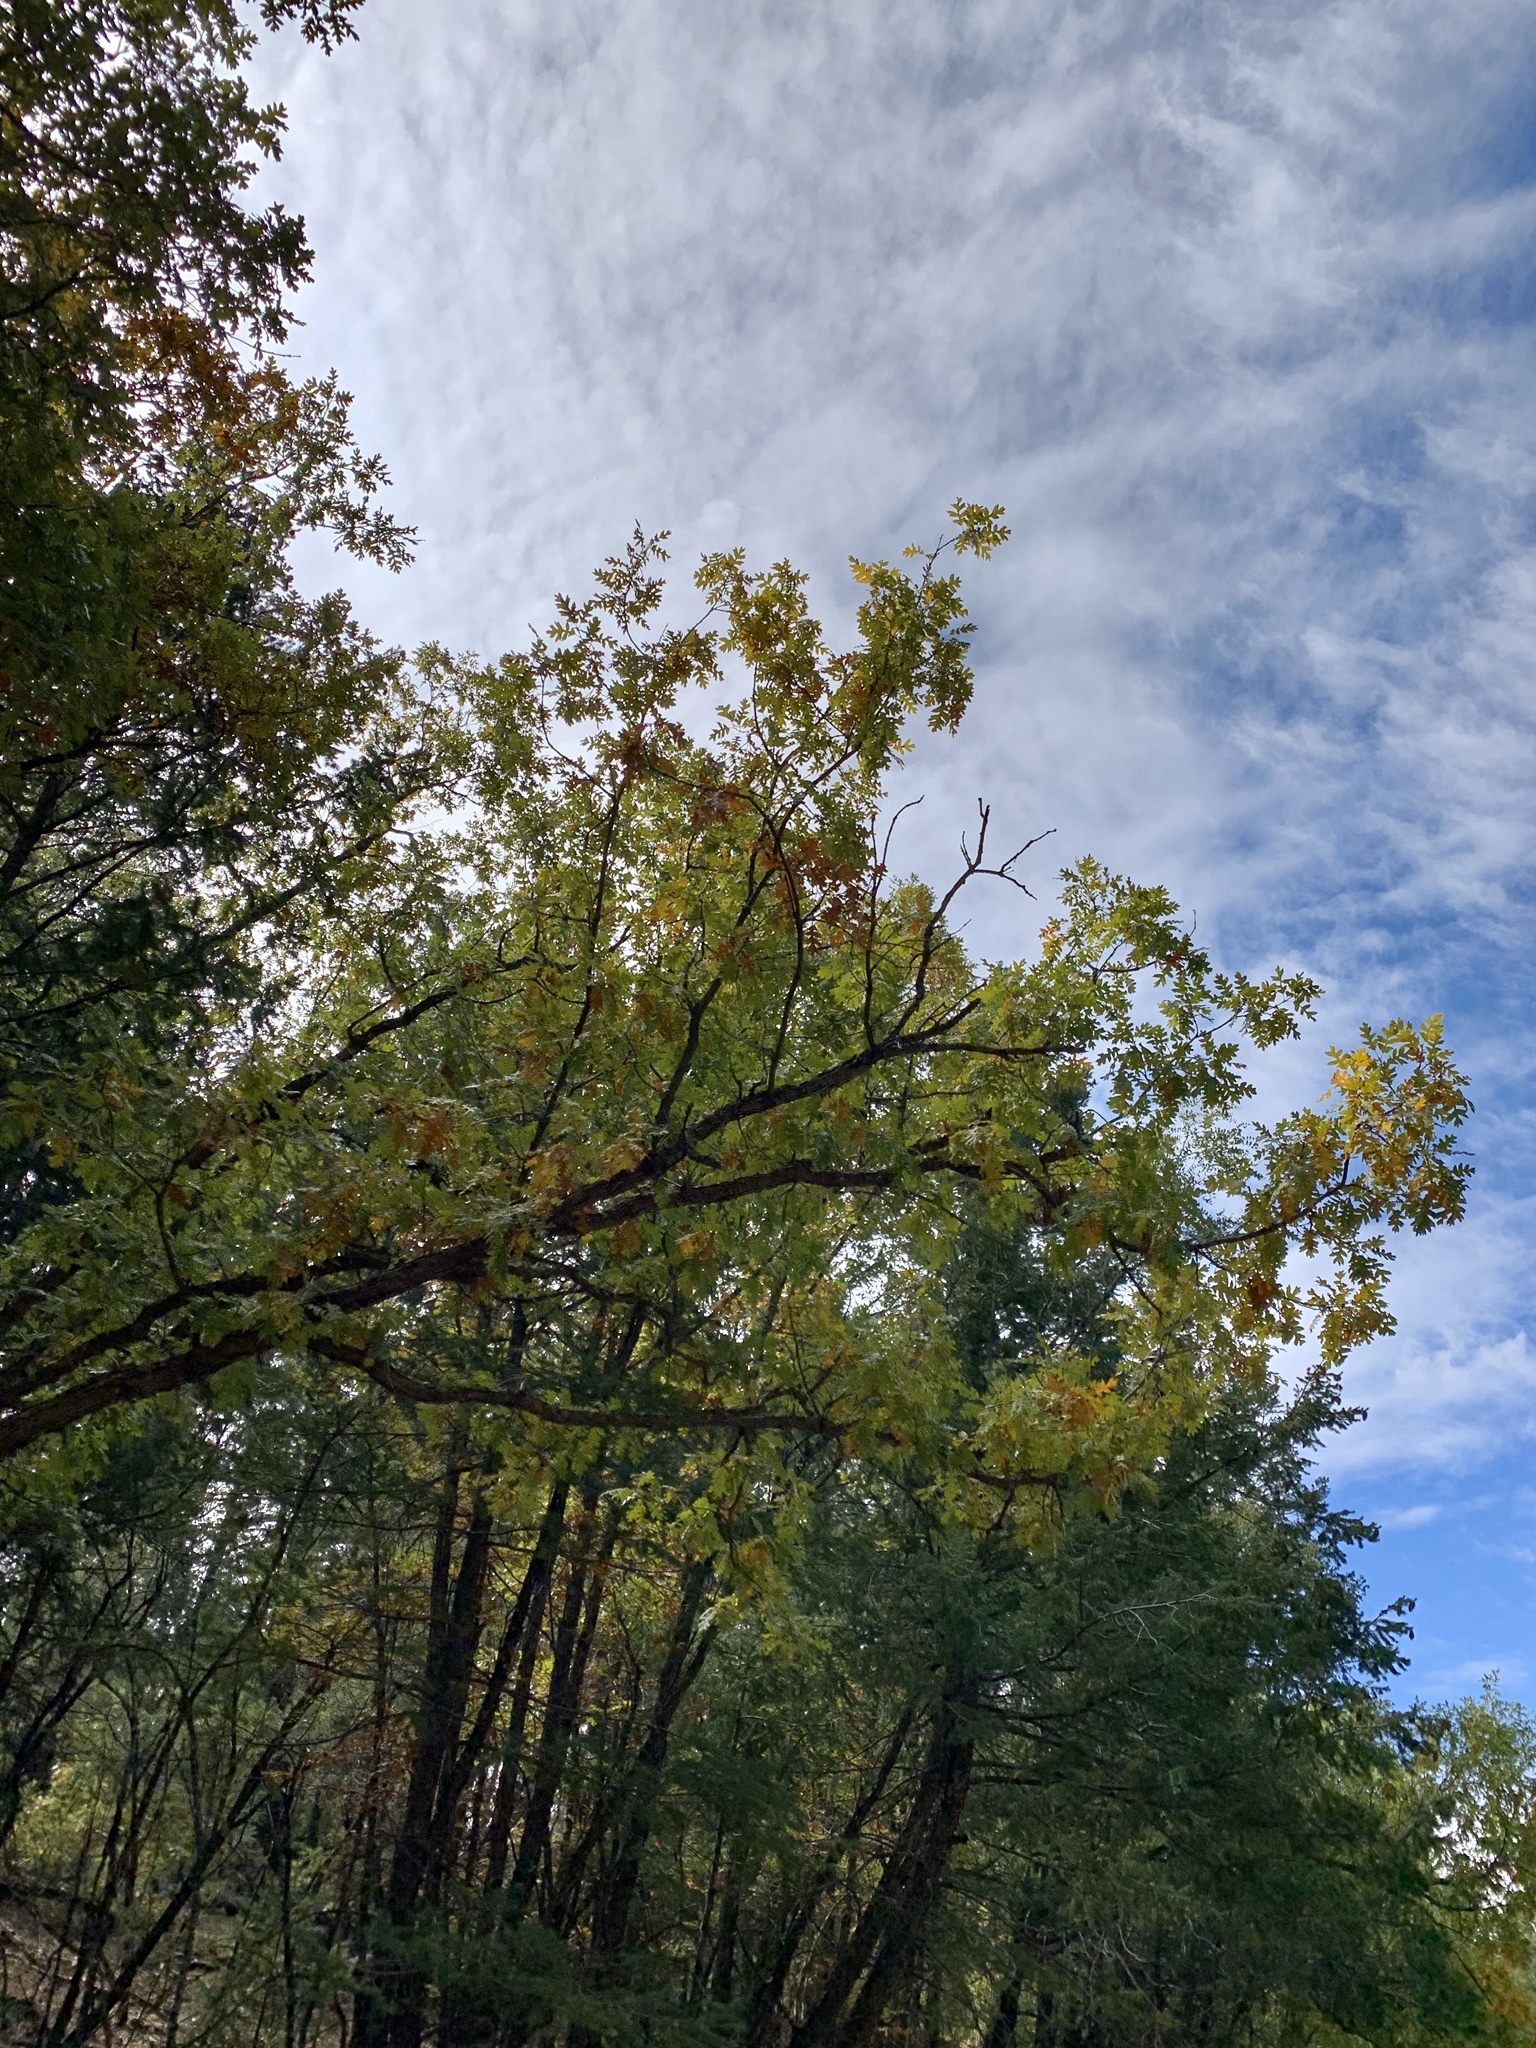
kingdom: Plantae
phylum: Tracheophyta
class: Magnoliopsida
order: Fagales
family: Fagaceae
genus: Quercus
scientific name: Quercus gambelii
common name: Gambel oak
